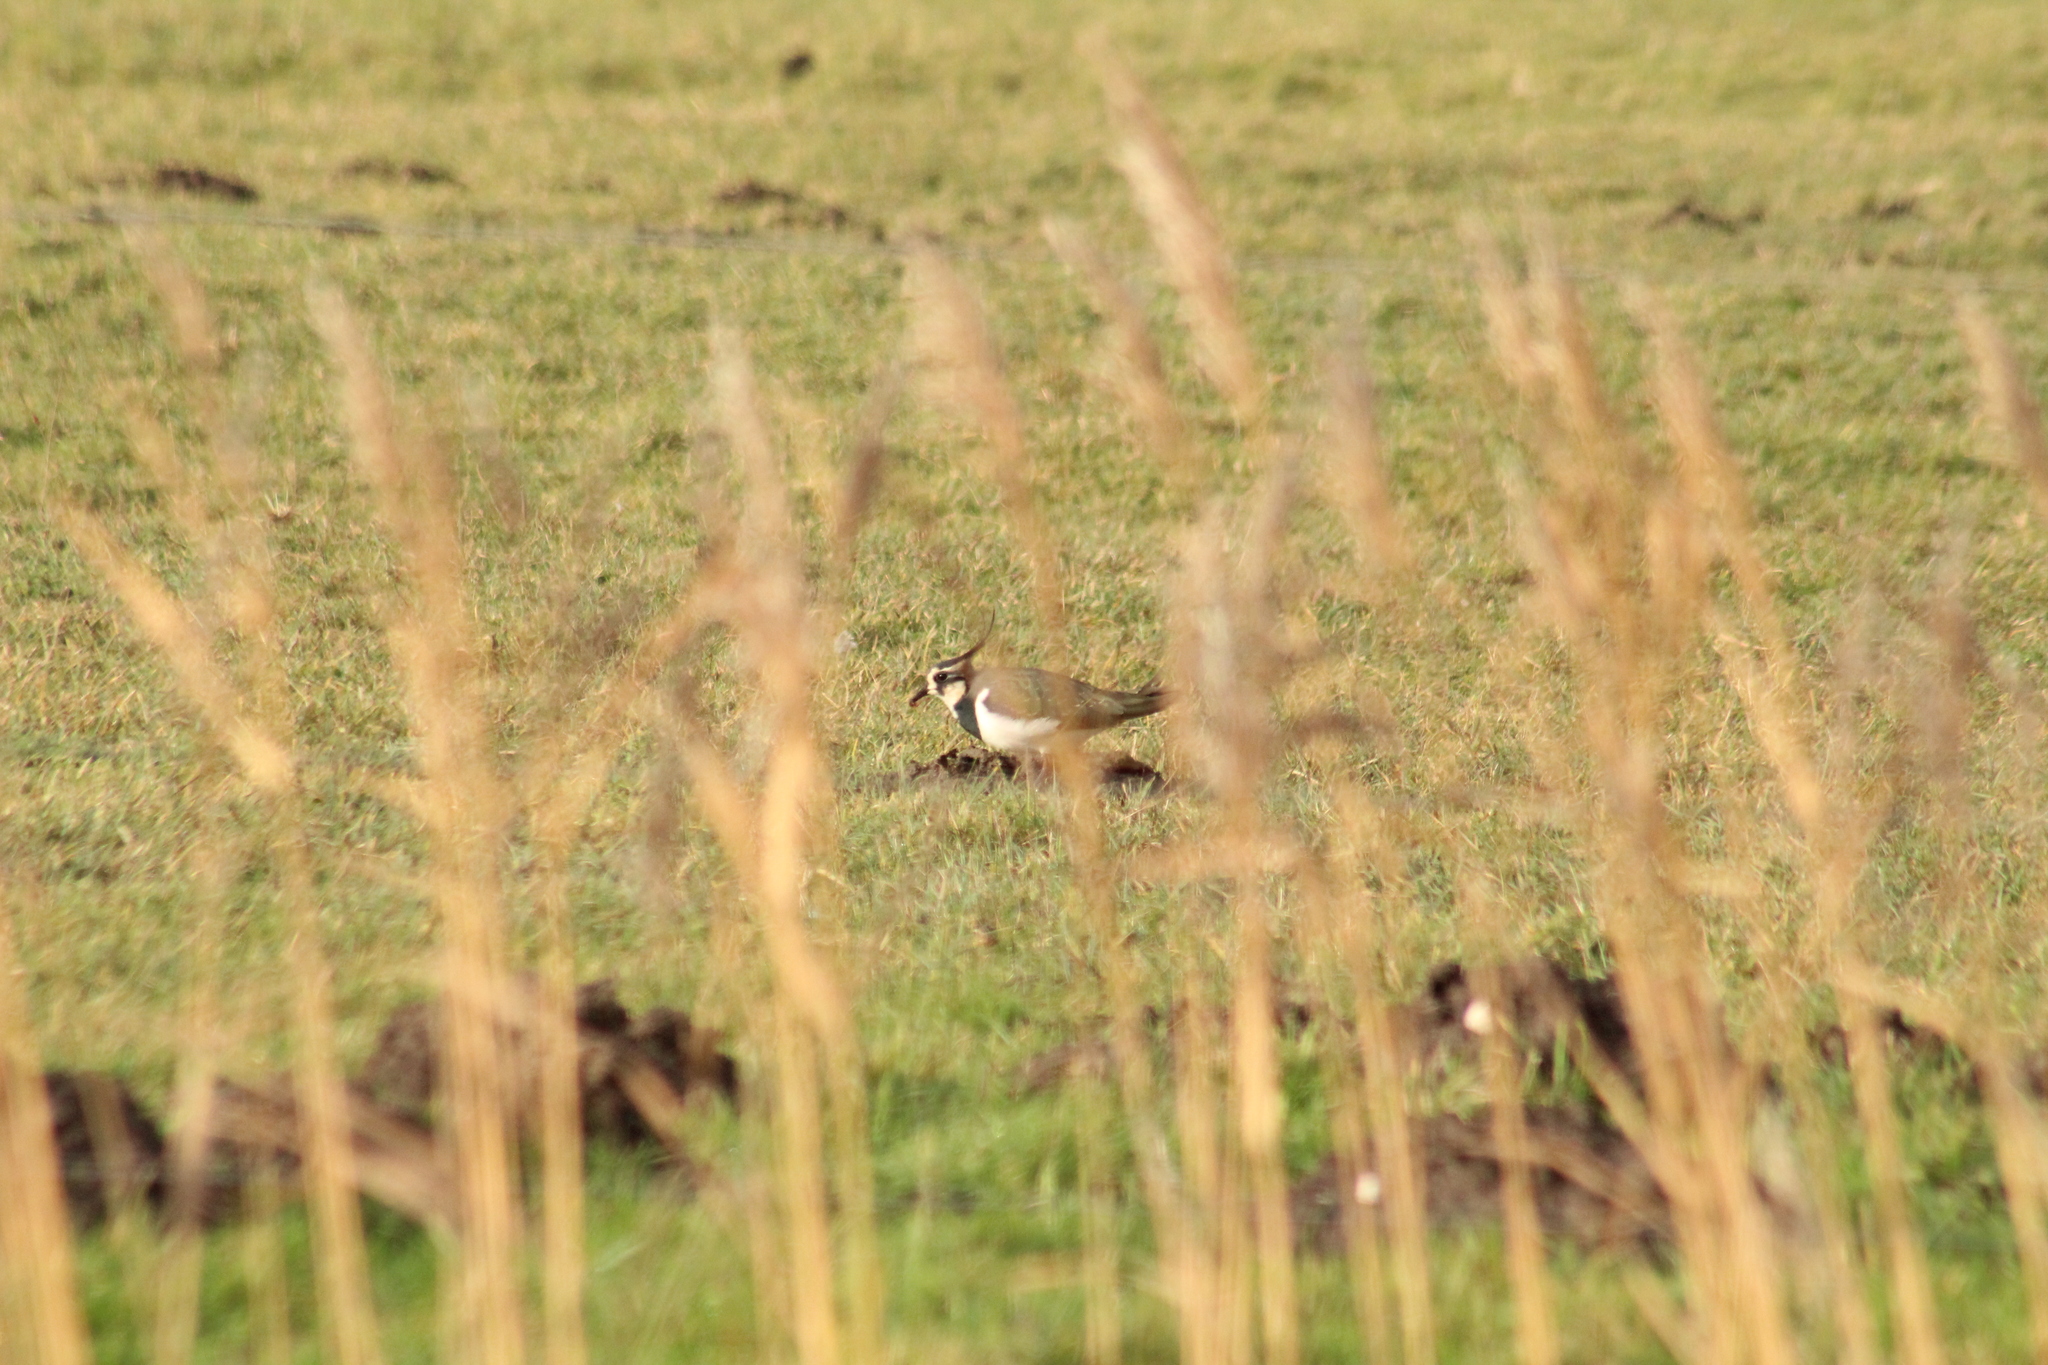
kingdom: Animalia
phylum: Chordata
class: Aves
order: Charadriiformes
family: Charadriidae
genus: Vanellus
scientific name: Vanellus vanellus
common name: Northern lapwing
